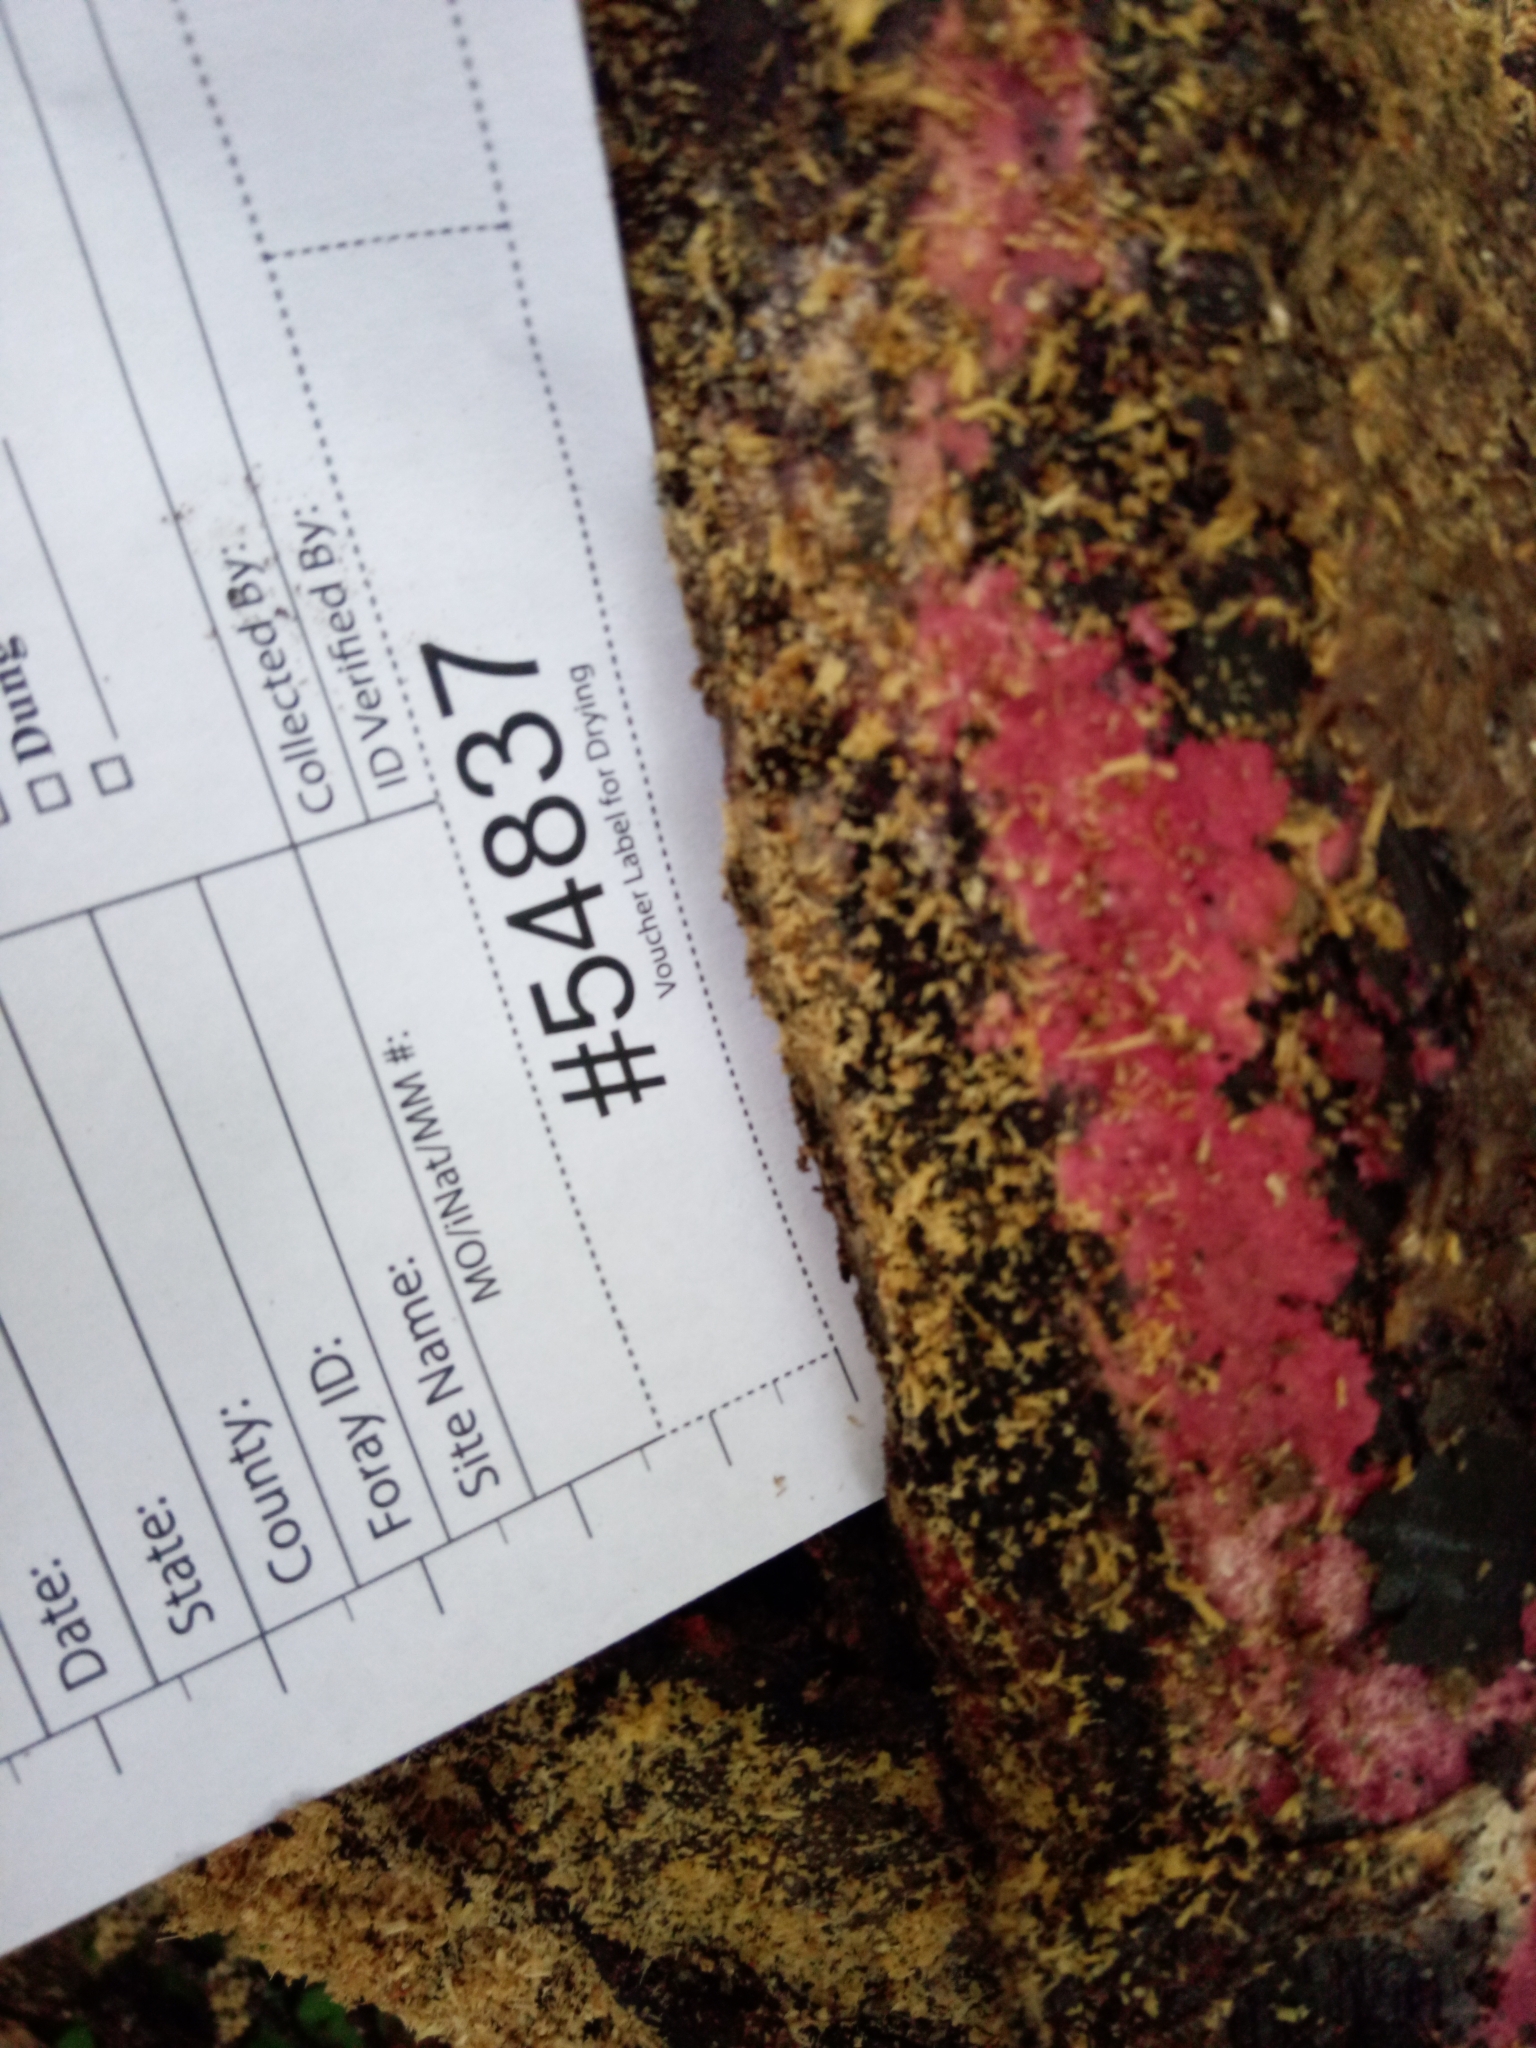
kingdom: Fungi
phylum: Ascomycota
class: Sordariomycetes
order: Hypocreales
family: Hypocreaceae
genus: Hypomyces
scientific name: Hypomyces rosellus
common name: Pink polypore mould
